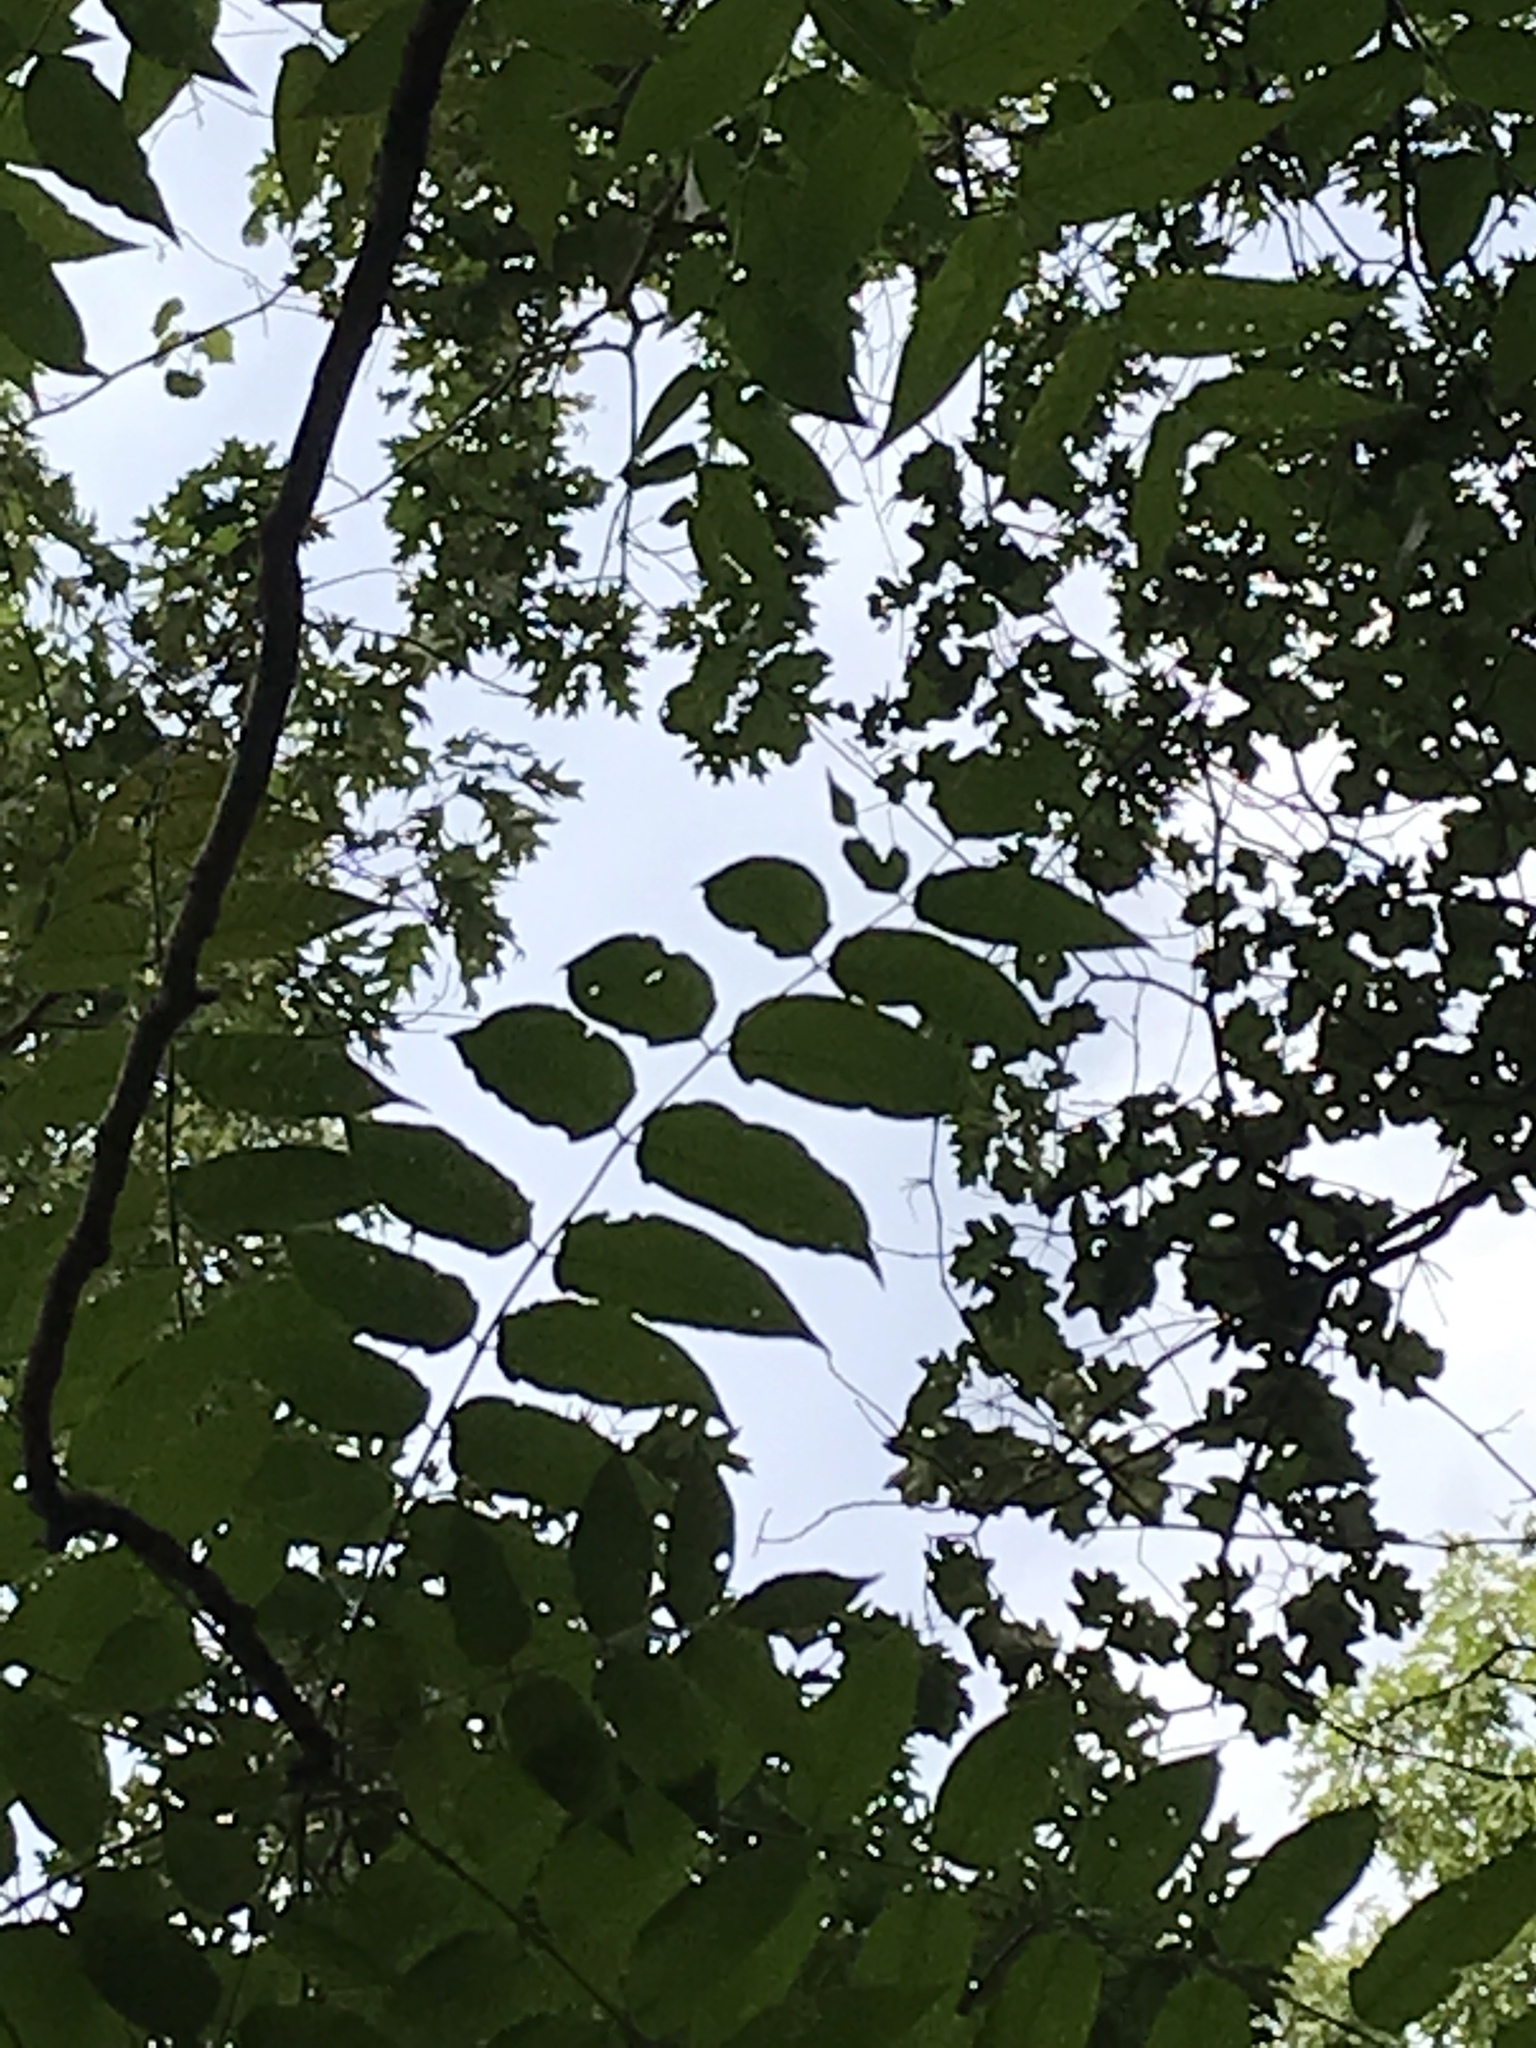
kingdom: Plantae
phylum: Tracheophyta
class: Magnoliopsida
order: Sapindales
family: Simaroubaceae
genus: Ailanthus
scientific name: Ailanthus altissima
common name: Tree-of-heaven
